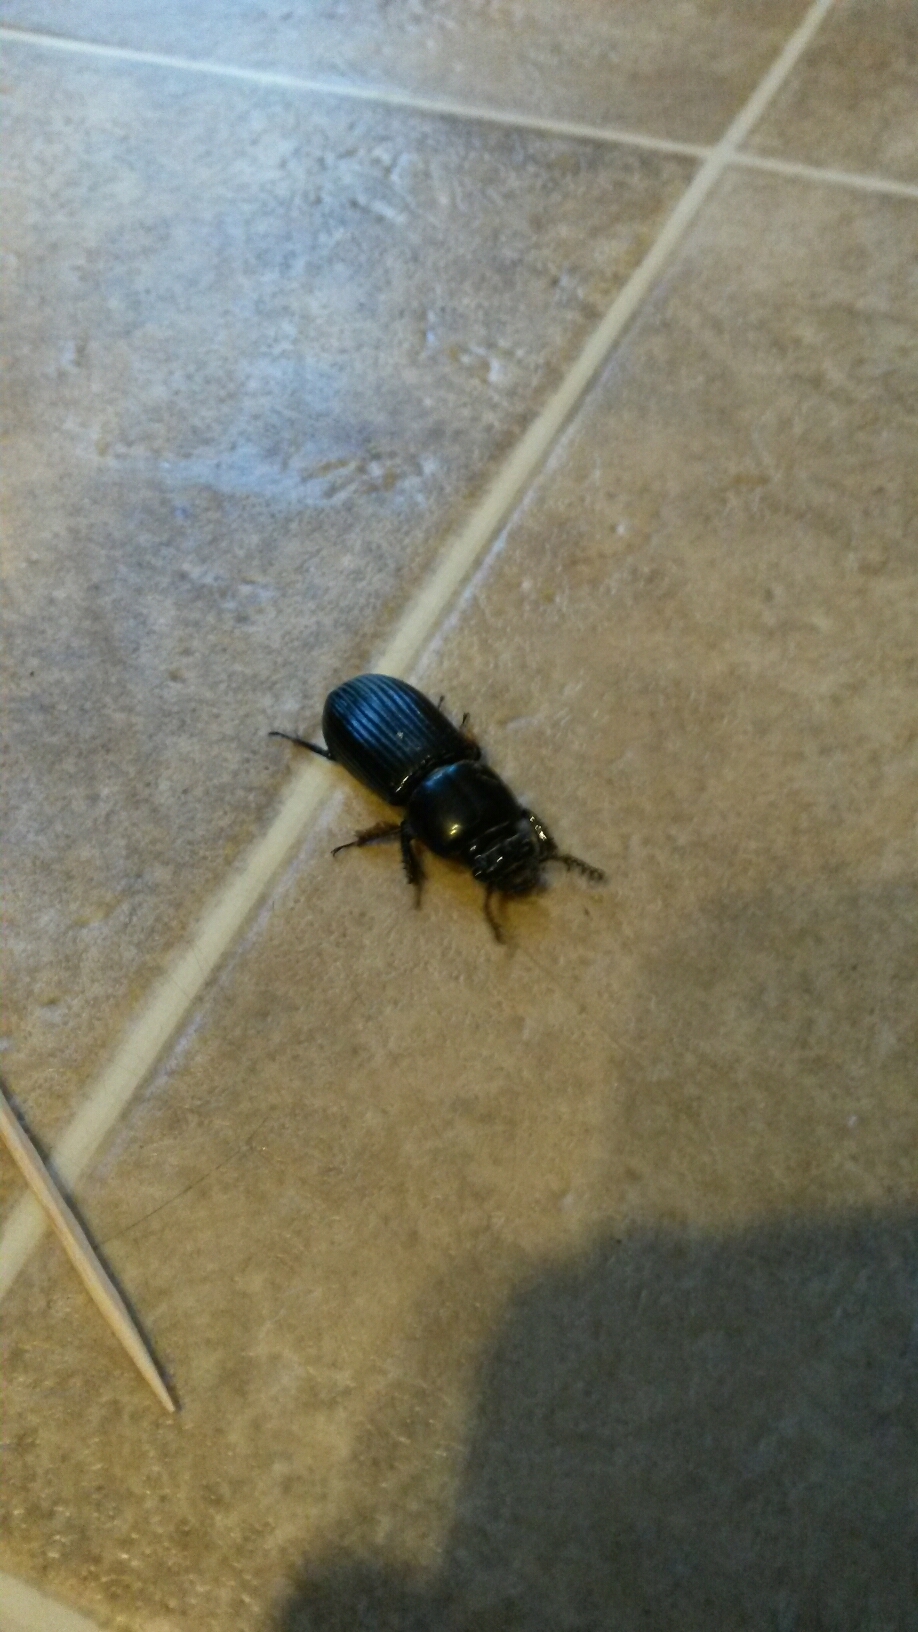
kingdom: Animalia
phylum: Arthropoda
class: Insecta
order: Coleoptera
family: Passalidae
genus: Odontotaenius
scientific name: Odontotaenius disjunctus
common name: Patent leather beetle
